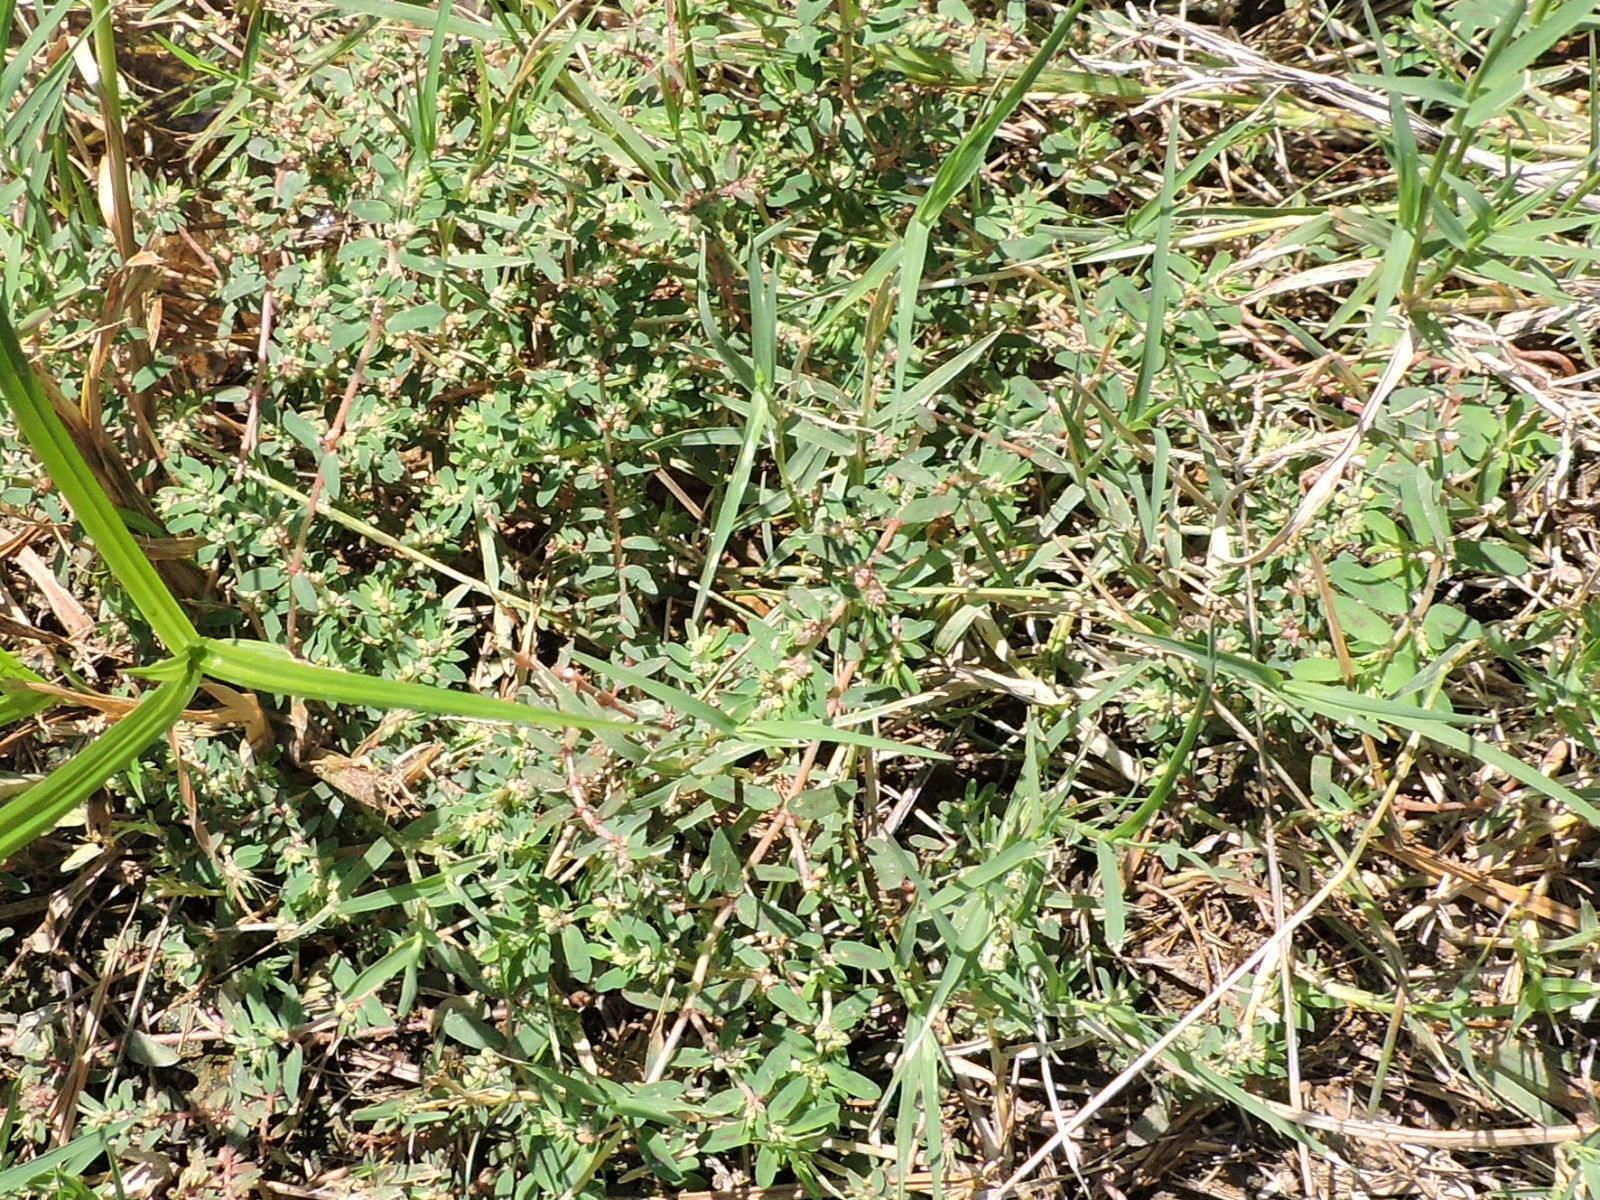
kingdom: Plantae
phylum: Tracheophyta
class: Magnoliopsida
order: Malpighiales
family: Euphorbiaceae
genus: Euphorbia
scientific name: Euphorbia maculata
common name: Spotted spurge
